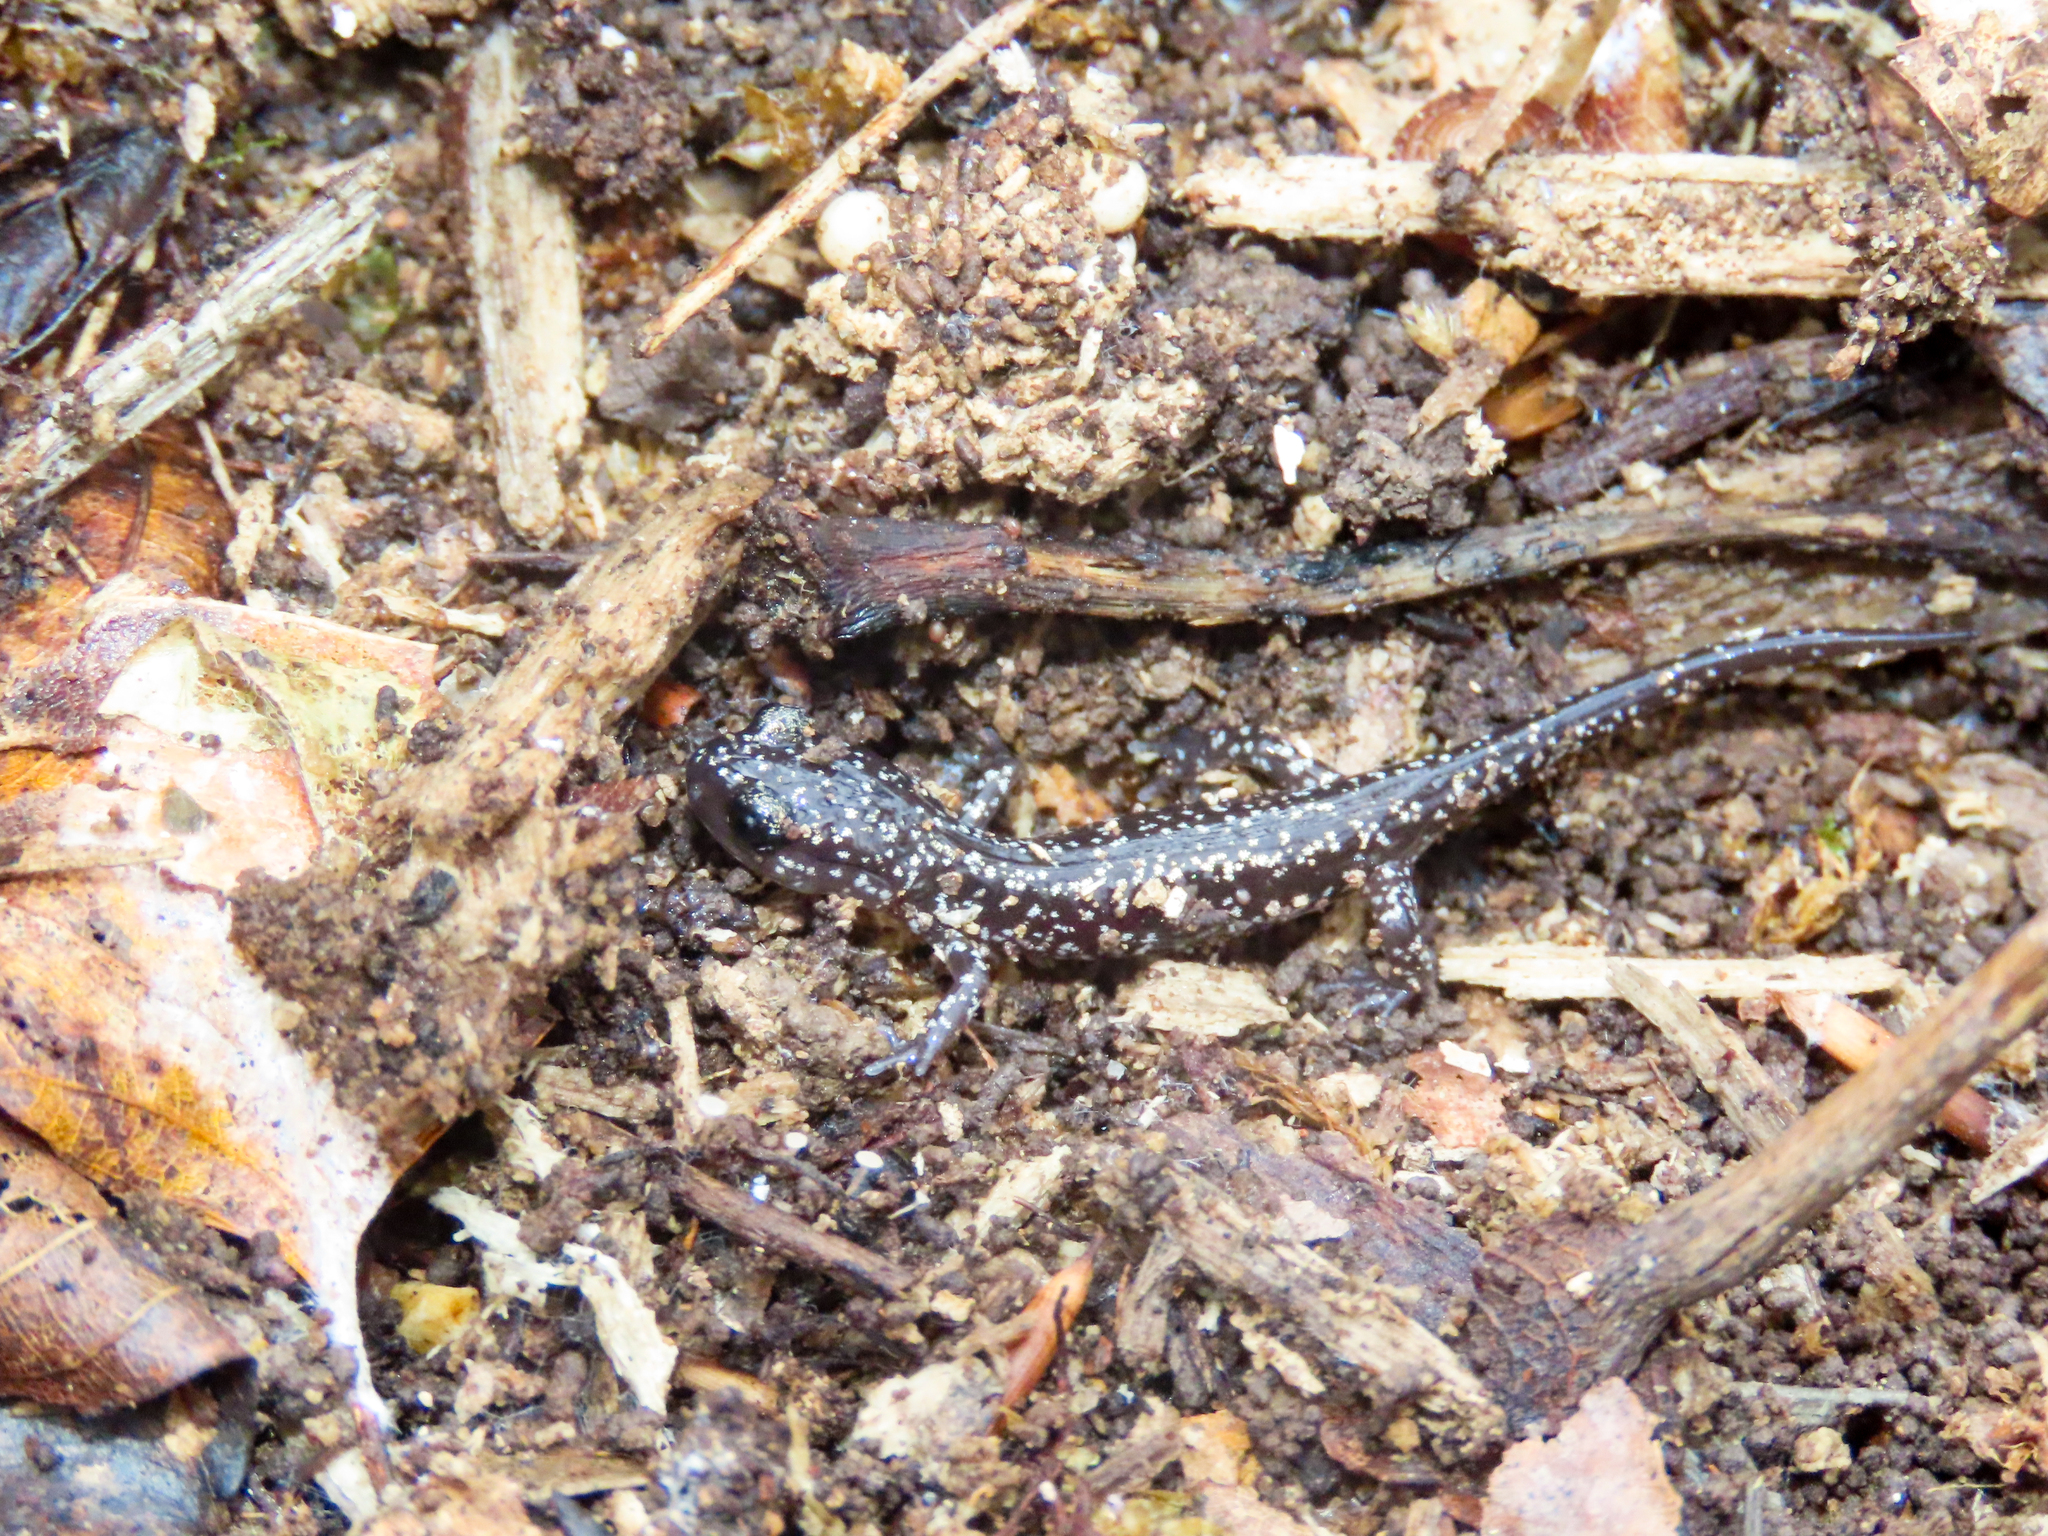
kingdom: Animalia
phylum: Chordata
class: Amphibia
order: Caudata
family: Plethodontidae
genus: Plethodon
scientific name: Plethodon glutinosus
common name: Northern slimy salamander
